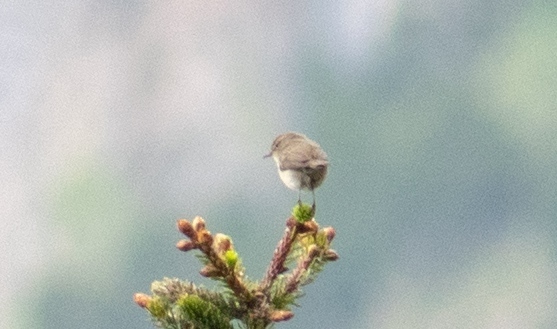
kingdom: Animalia
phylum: Chordata
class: Aves
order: Passeriformes
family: Phylloscopidae
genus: Phylloscopus
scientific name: Phylloscopus collybita
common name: Common chiffchaff
